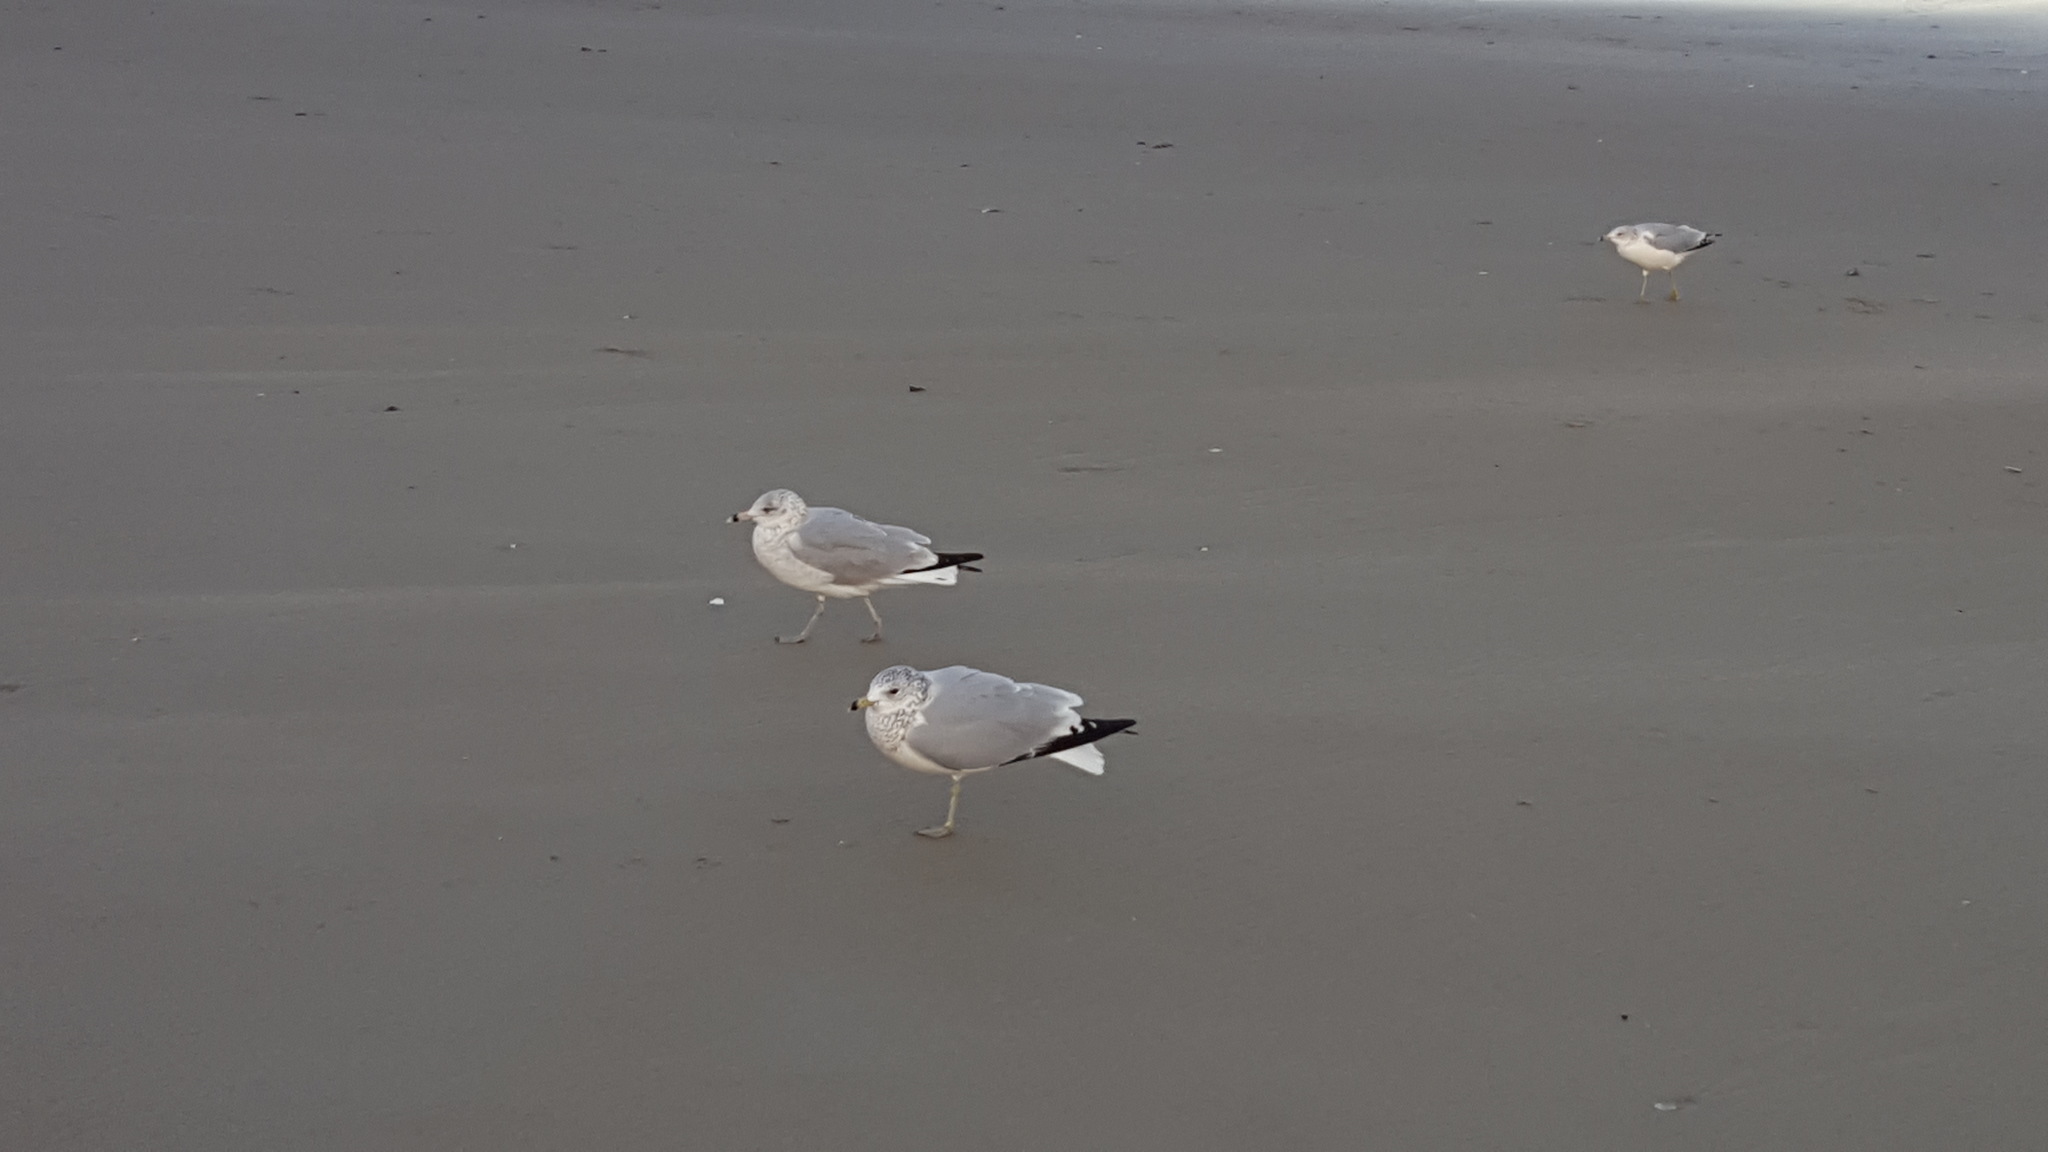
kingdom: Animalia
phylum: Chordata
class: Aves
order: Charadriiformes
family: Laridae
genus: Larus
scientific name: Larus delawarensis
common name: Ring-billed gull
